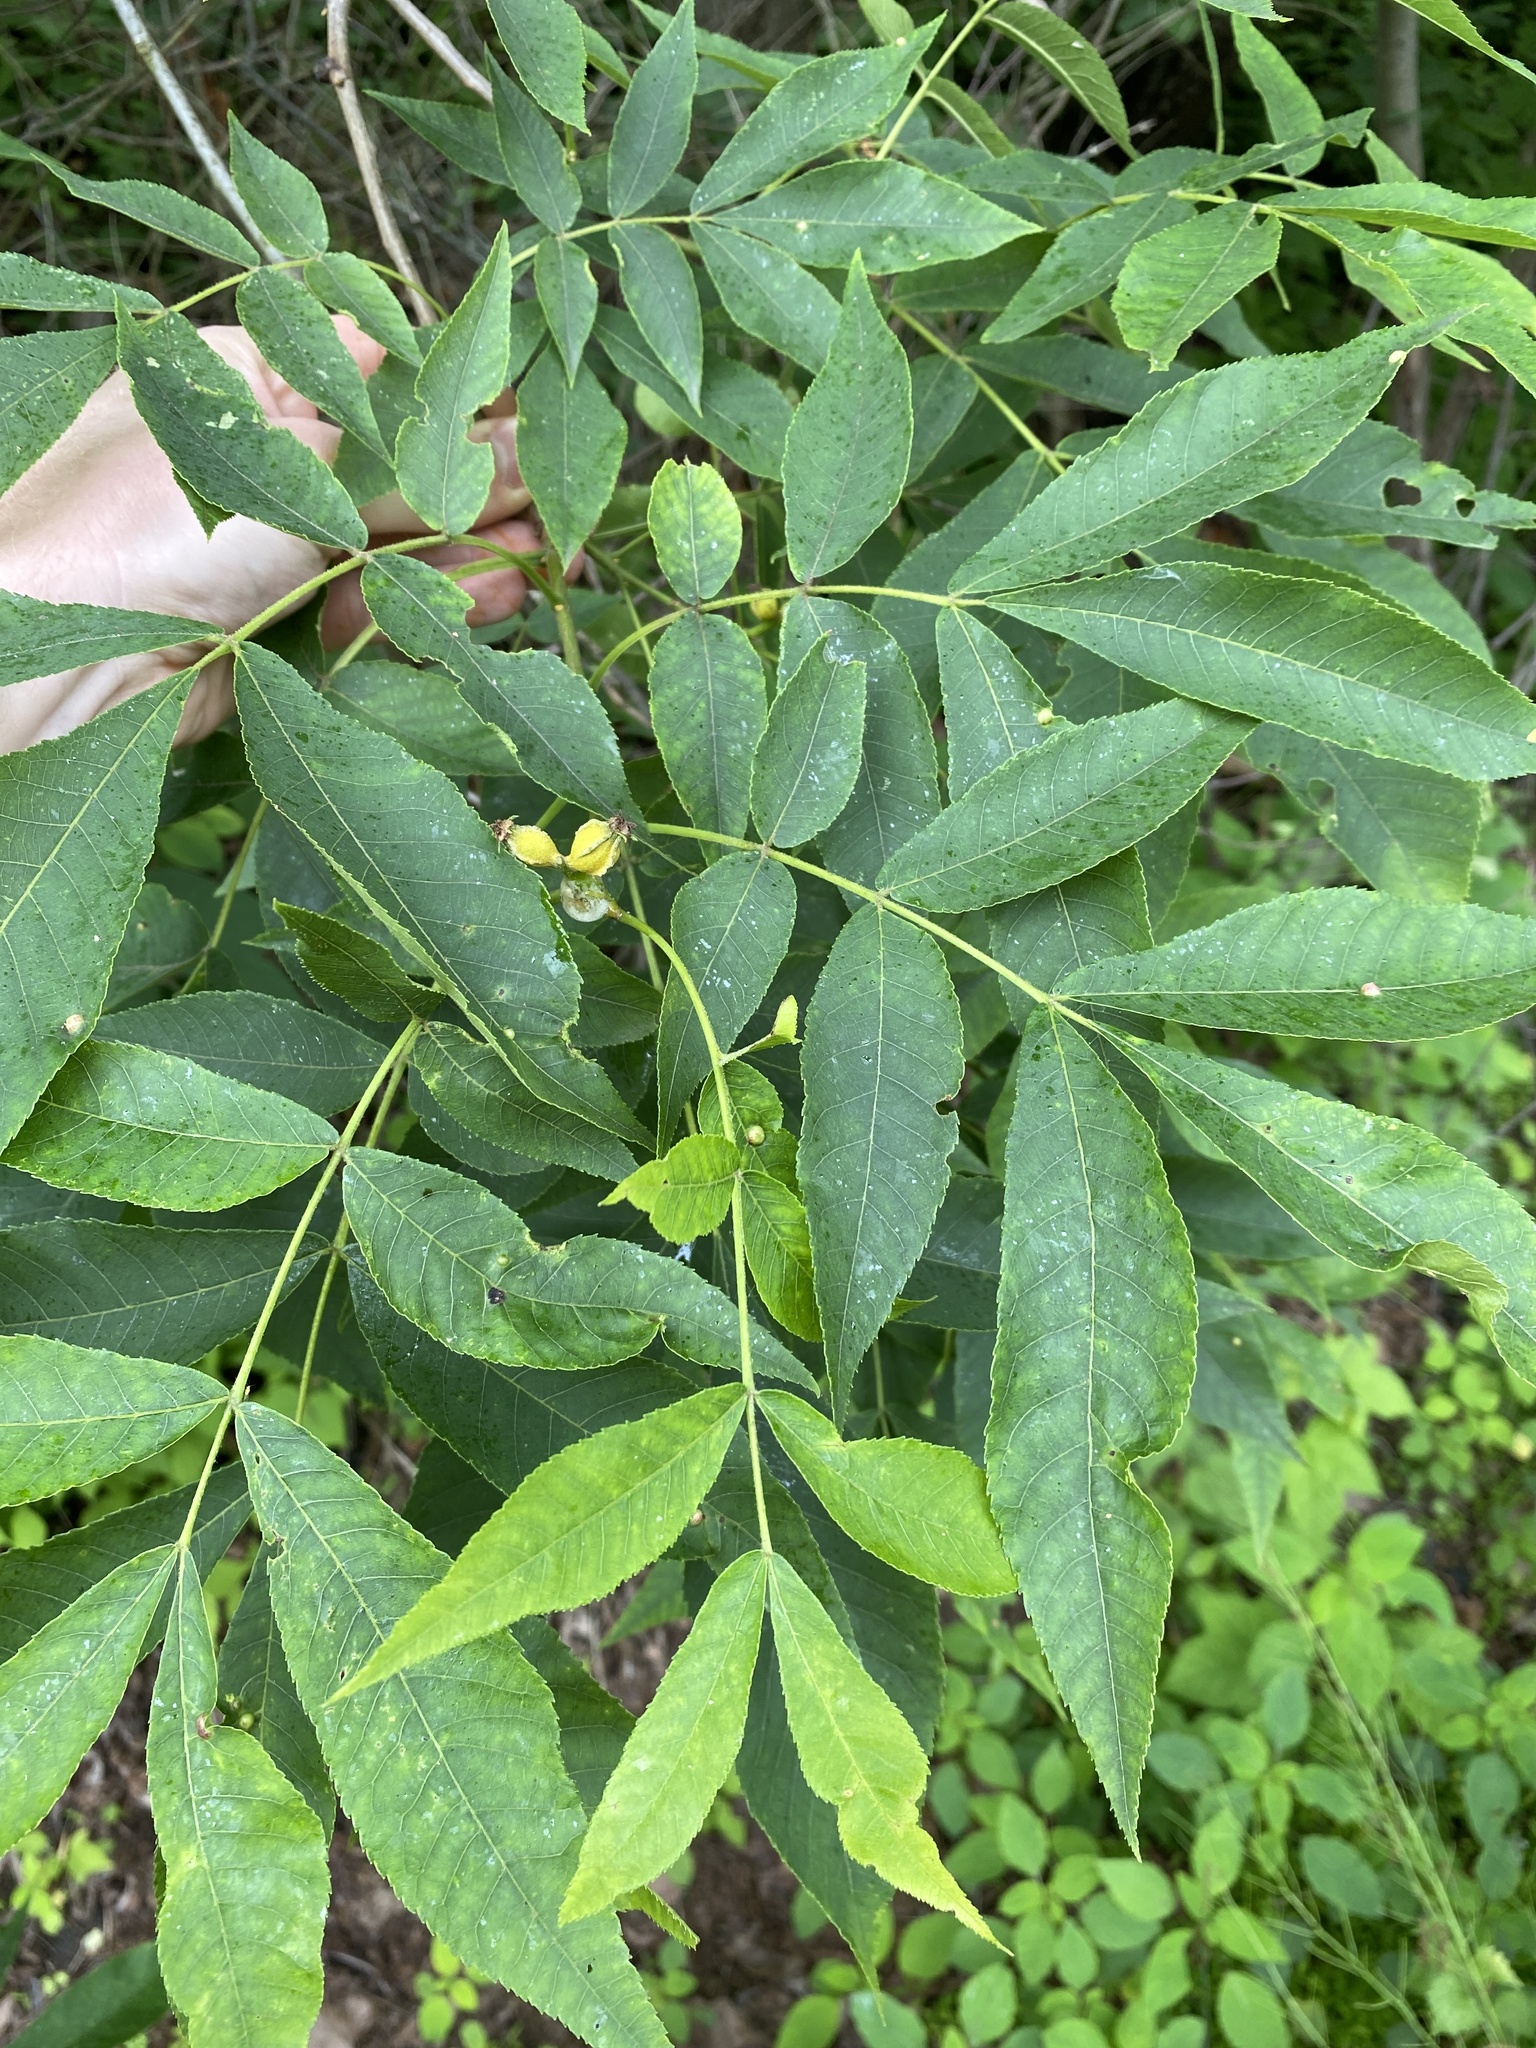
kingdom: Plantae
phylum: Tracheophyta
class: Magnoliopsida
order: Fagales
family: Juglandaceae
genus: Carya
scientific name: Carya cordiformis
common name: Bitternut hickory
